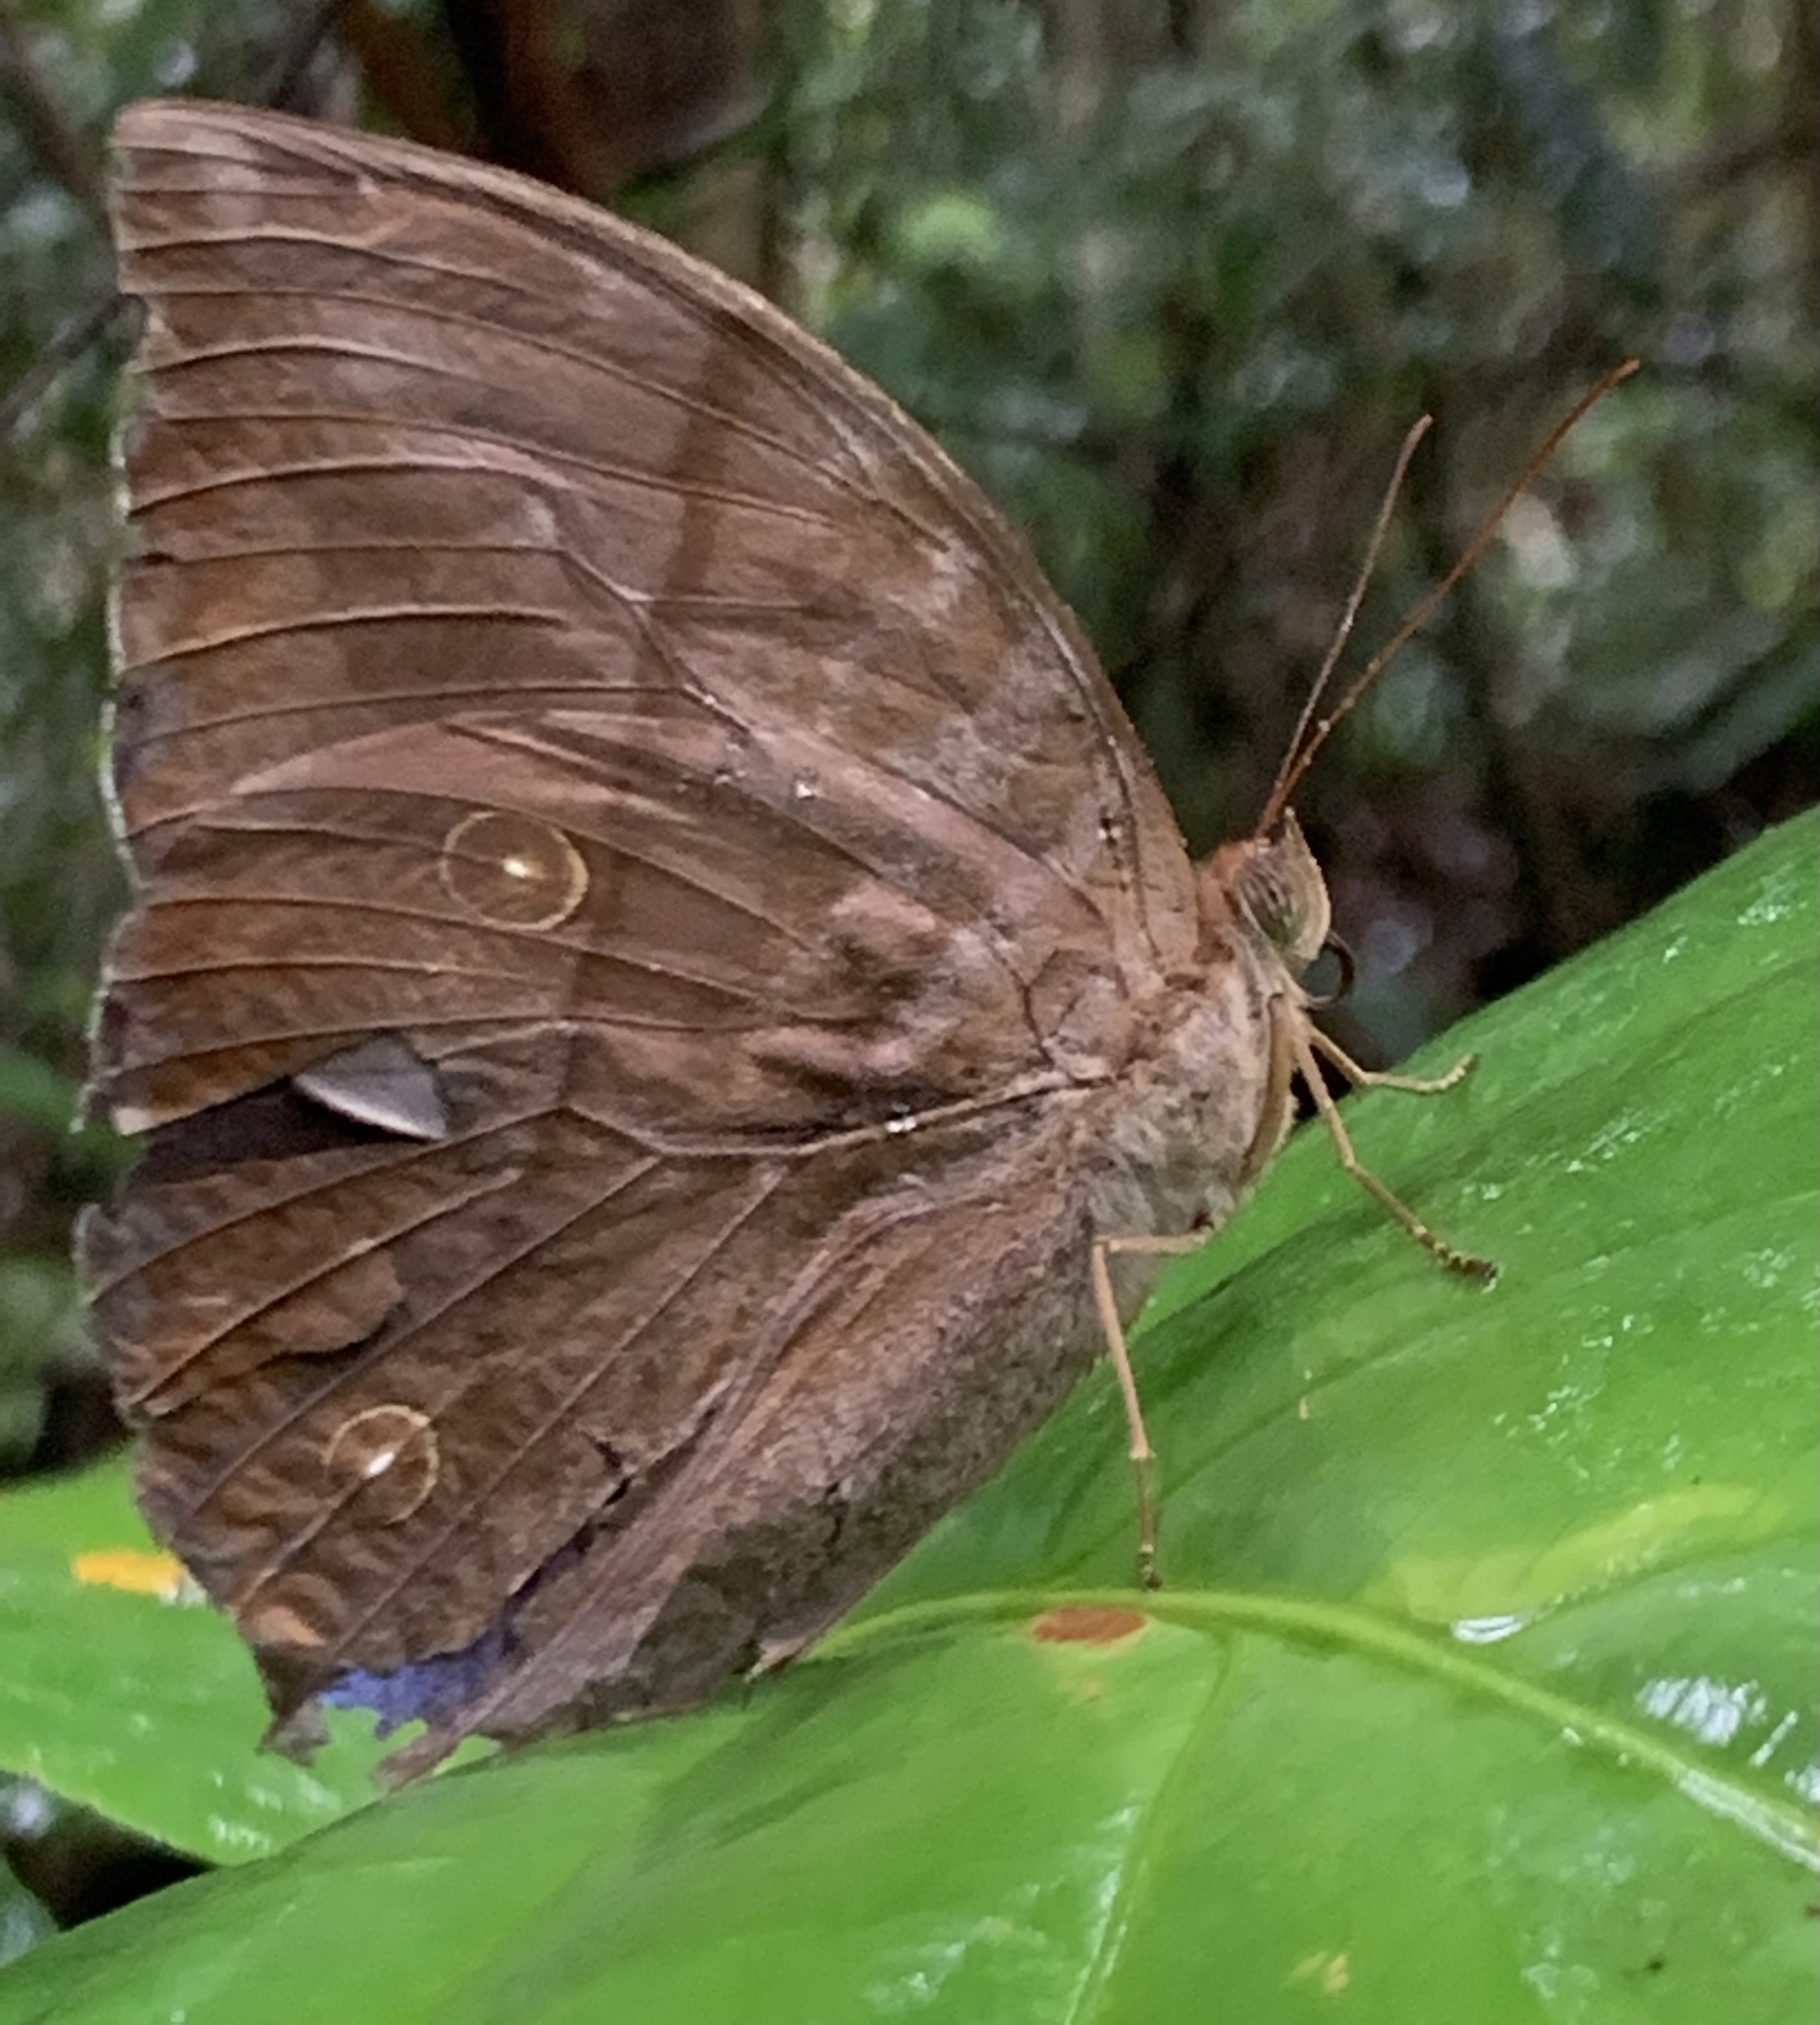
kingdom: Animalia
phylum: Arthropoda
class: Insecta
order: Lepidoptera
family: Nymphalidae
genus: Zeuxidia
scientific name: Zeuxidia amethysta
